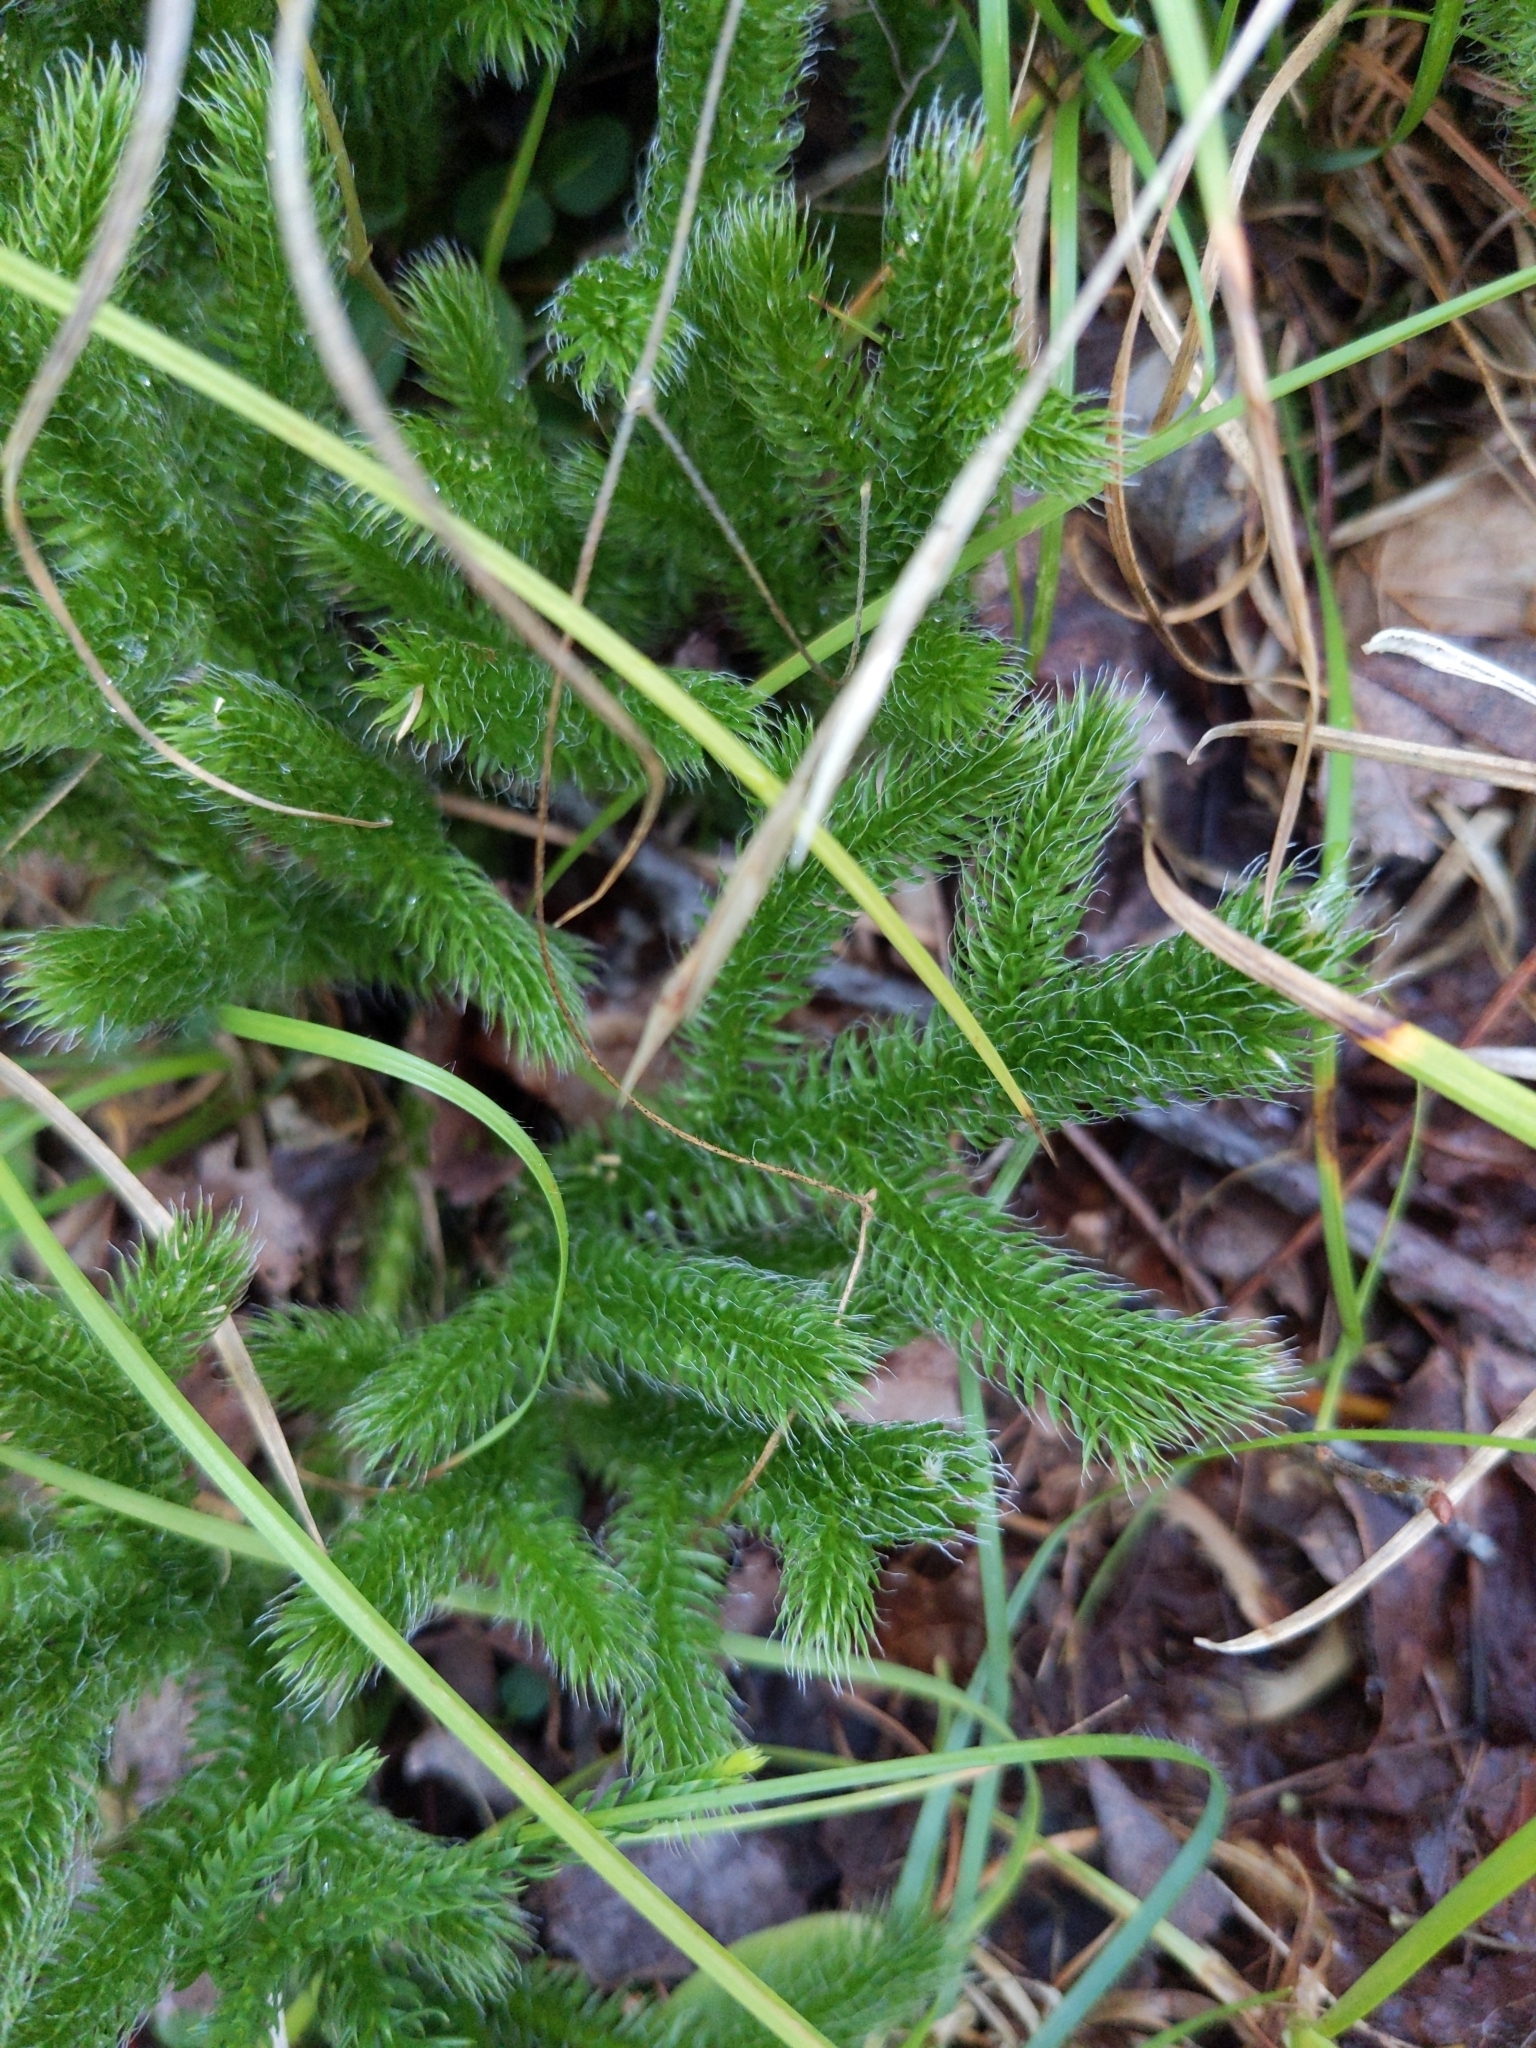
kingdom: Plantae
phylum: Tracheophyta
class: Lycopodiopsida
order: Lycopodiales
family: Lycopodiaceae
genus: Lycopodium
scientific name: Lycopodium clavatum
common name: Stag's-horn clubmoss
